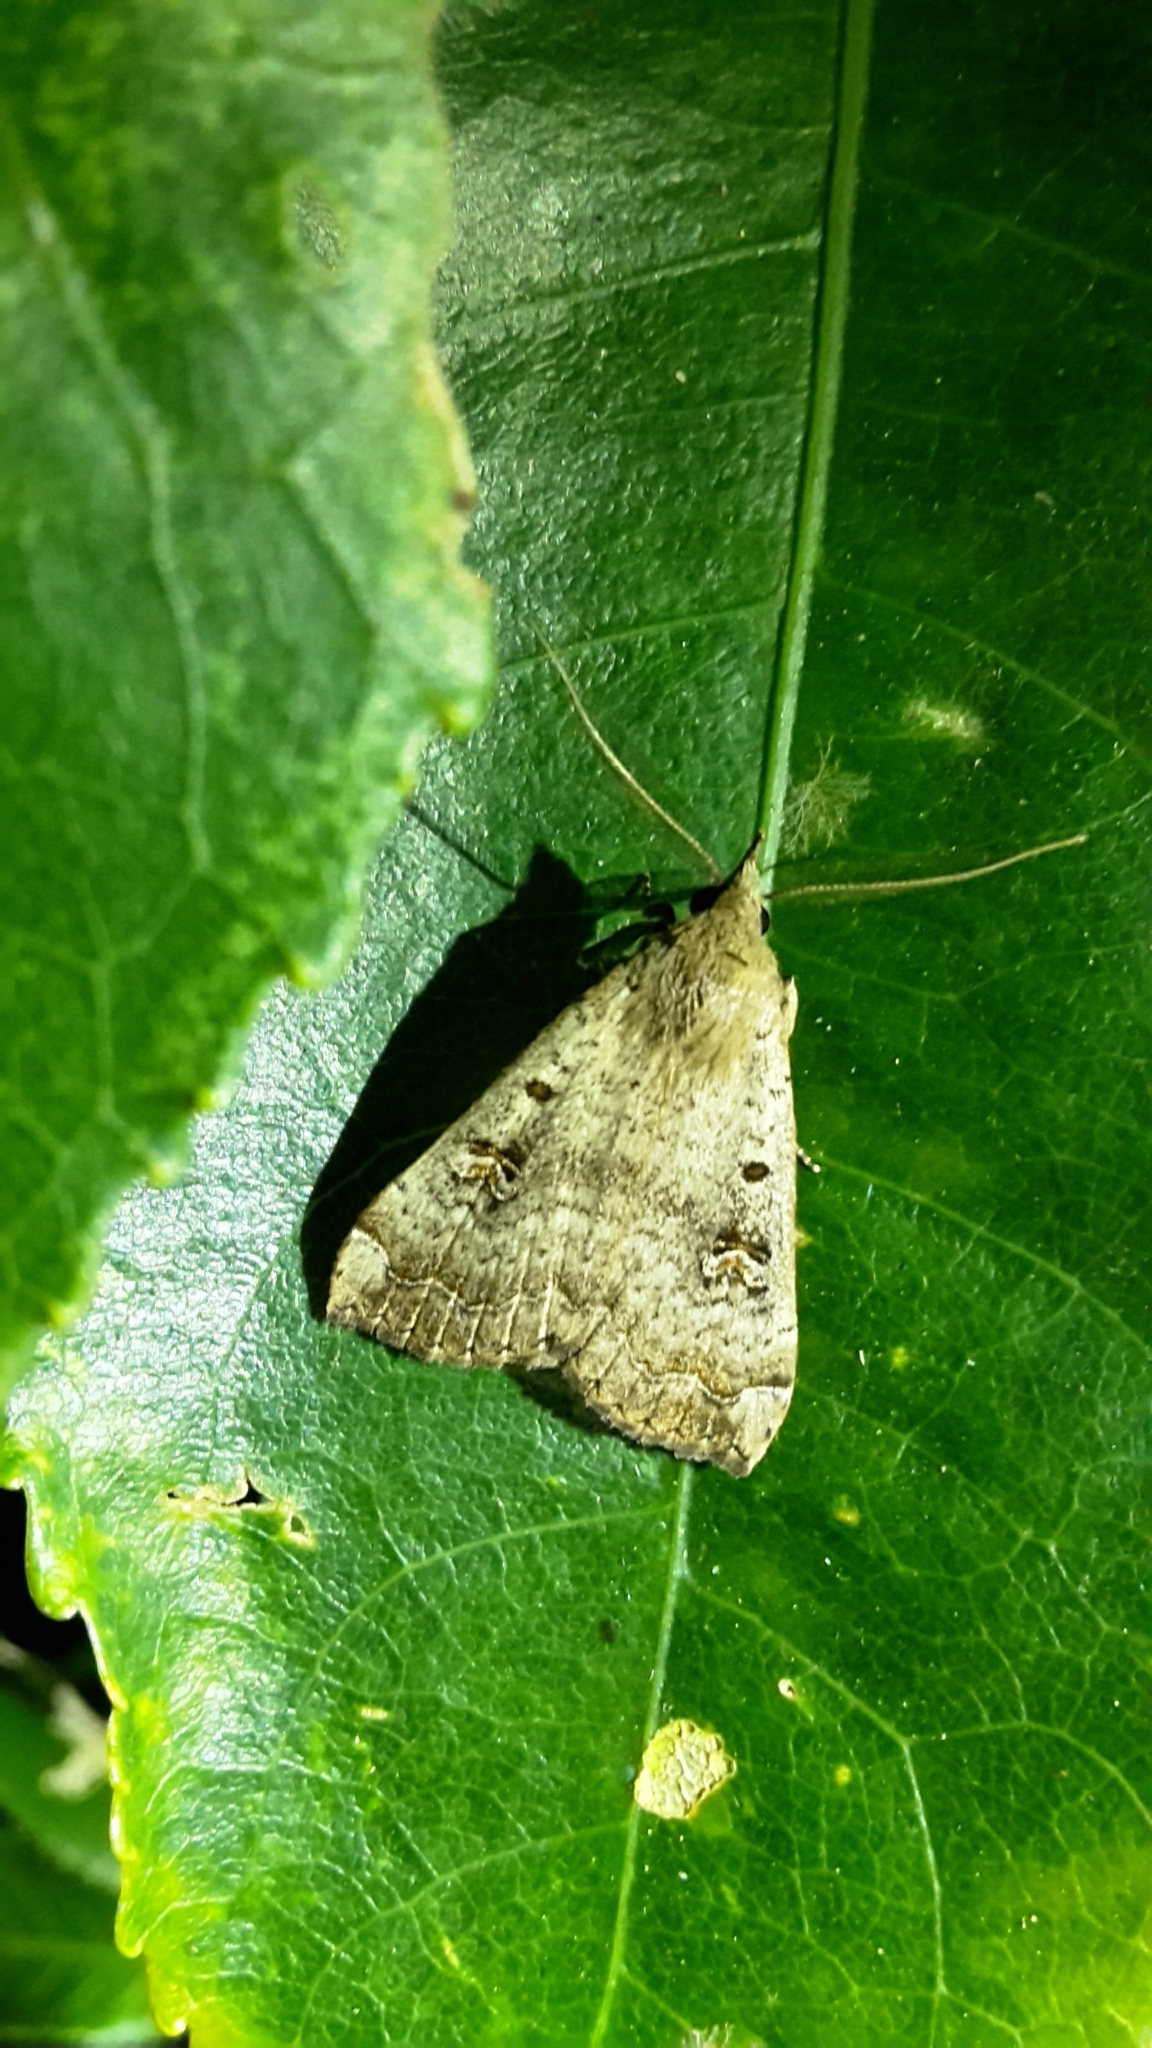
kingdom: Animalia
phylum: Arthropoda
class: Insecta
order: Lepidoptera
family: Erebidae
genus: Rhapsa
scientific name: Rhapsa scotosialis
